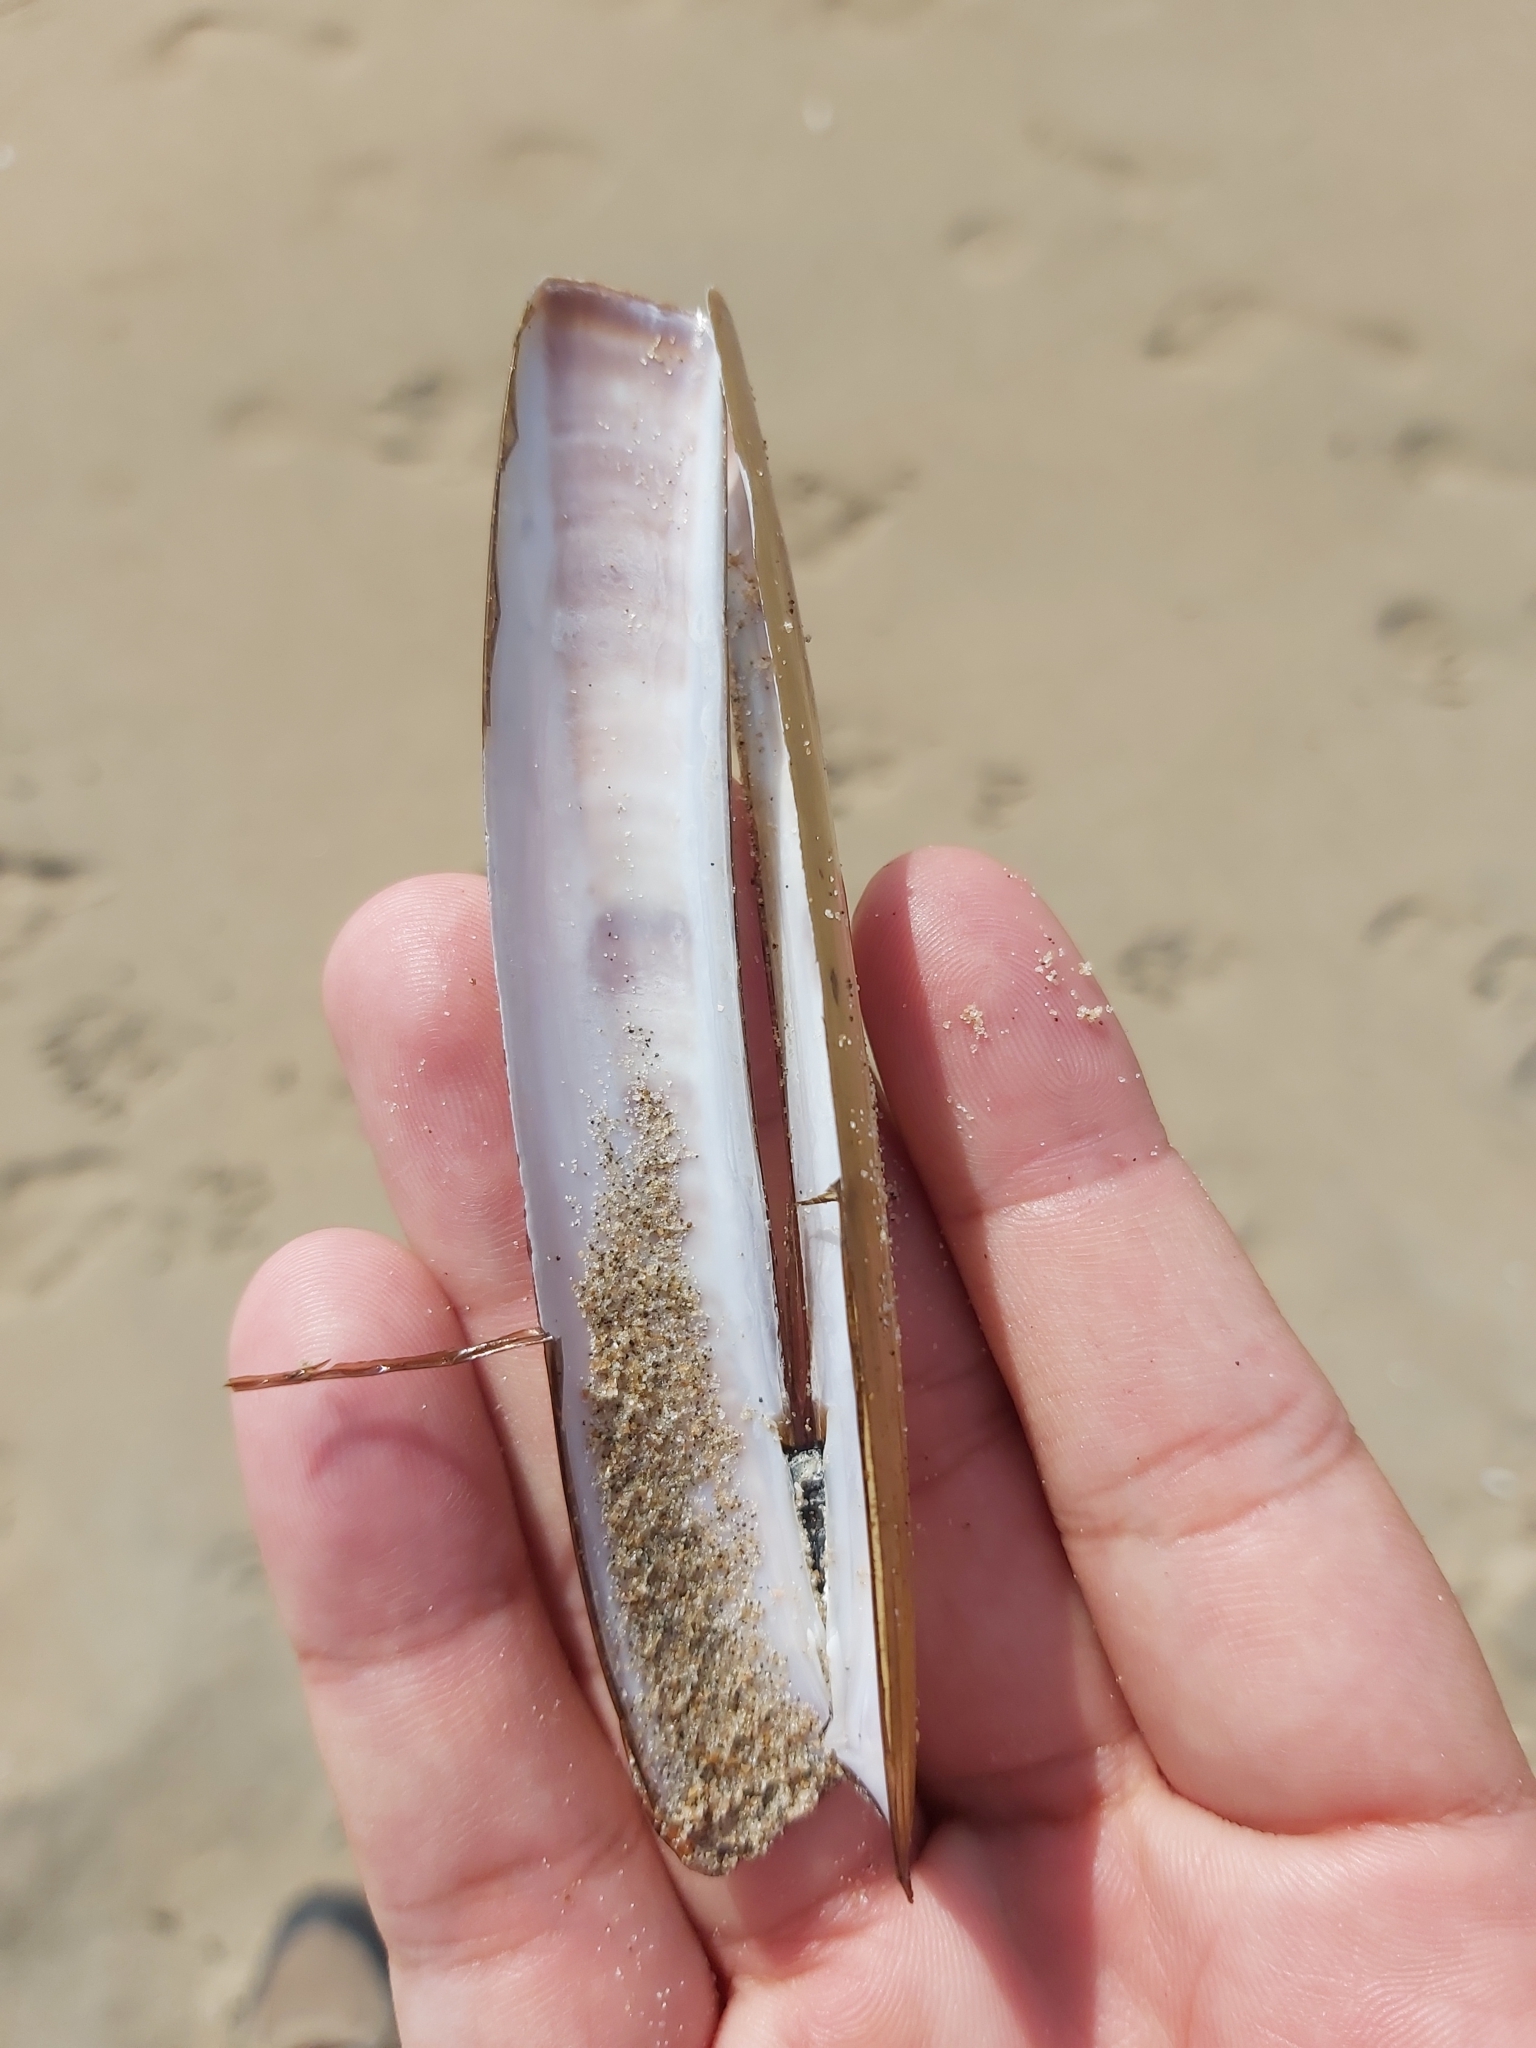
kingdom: Animalia
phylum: Mollusca
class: Bivalvia
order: Adapedonta
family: Pharidae
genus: Ensis
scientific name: Ensis leei
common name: American jack knife clam
